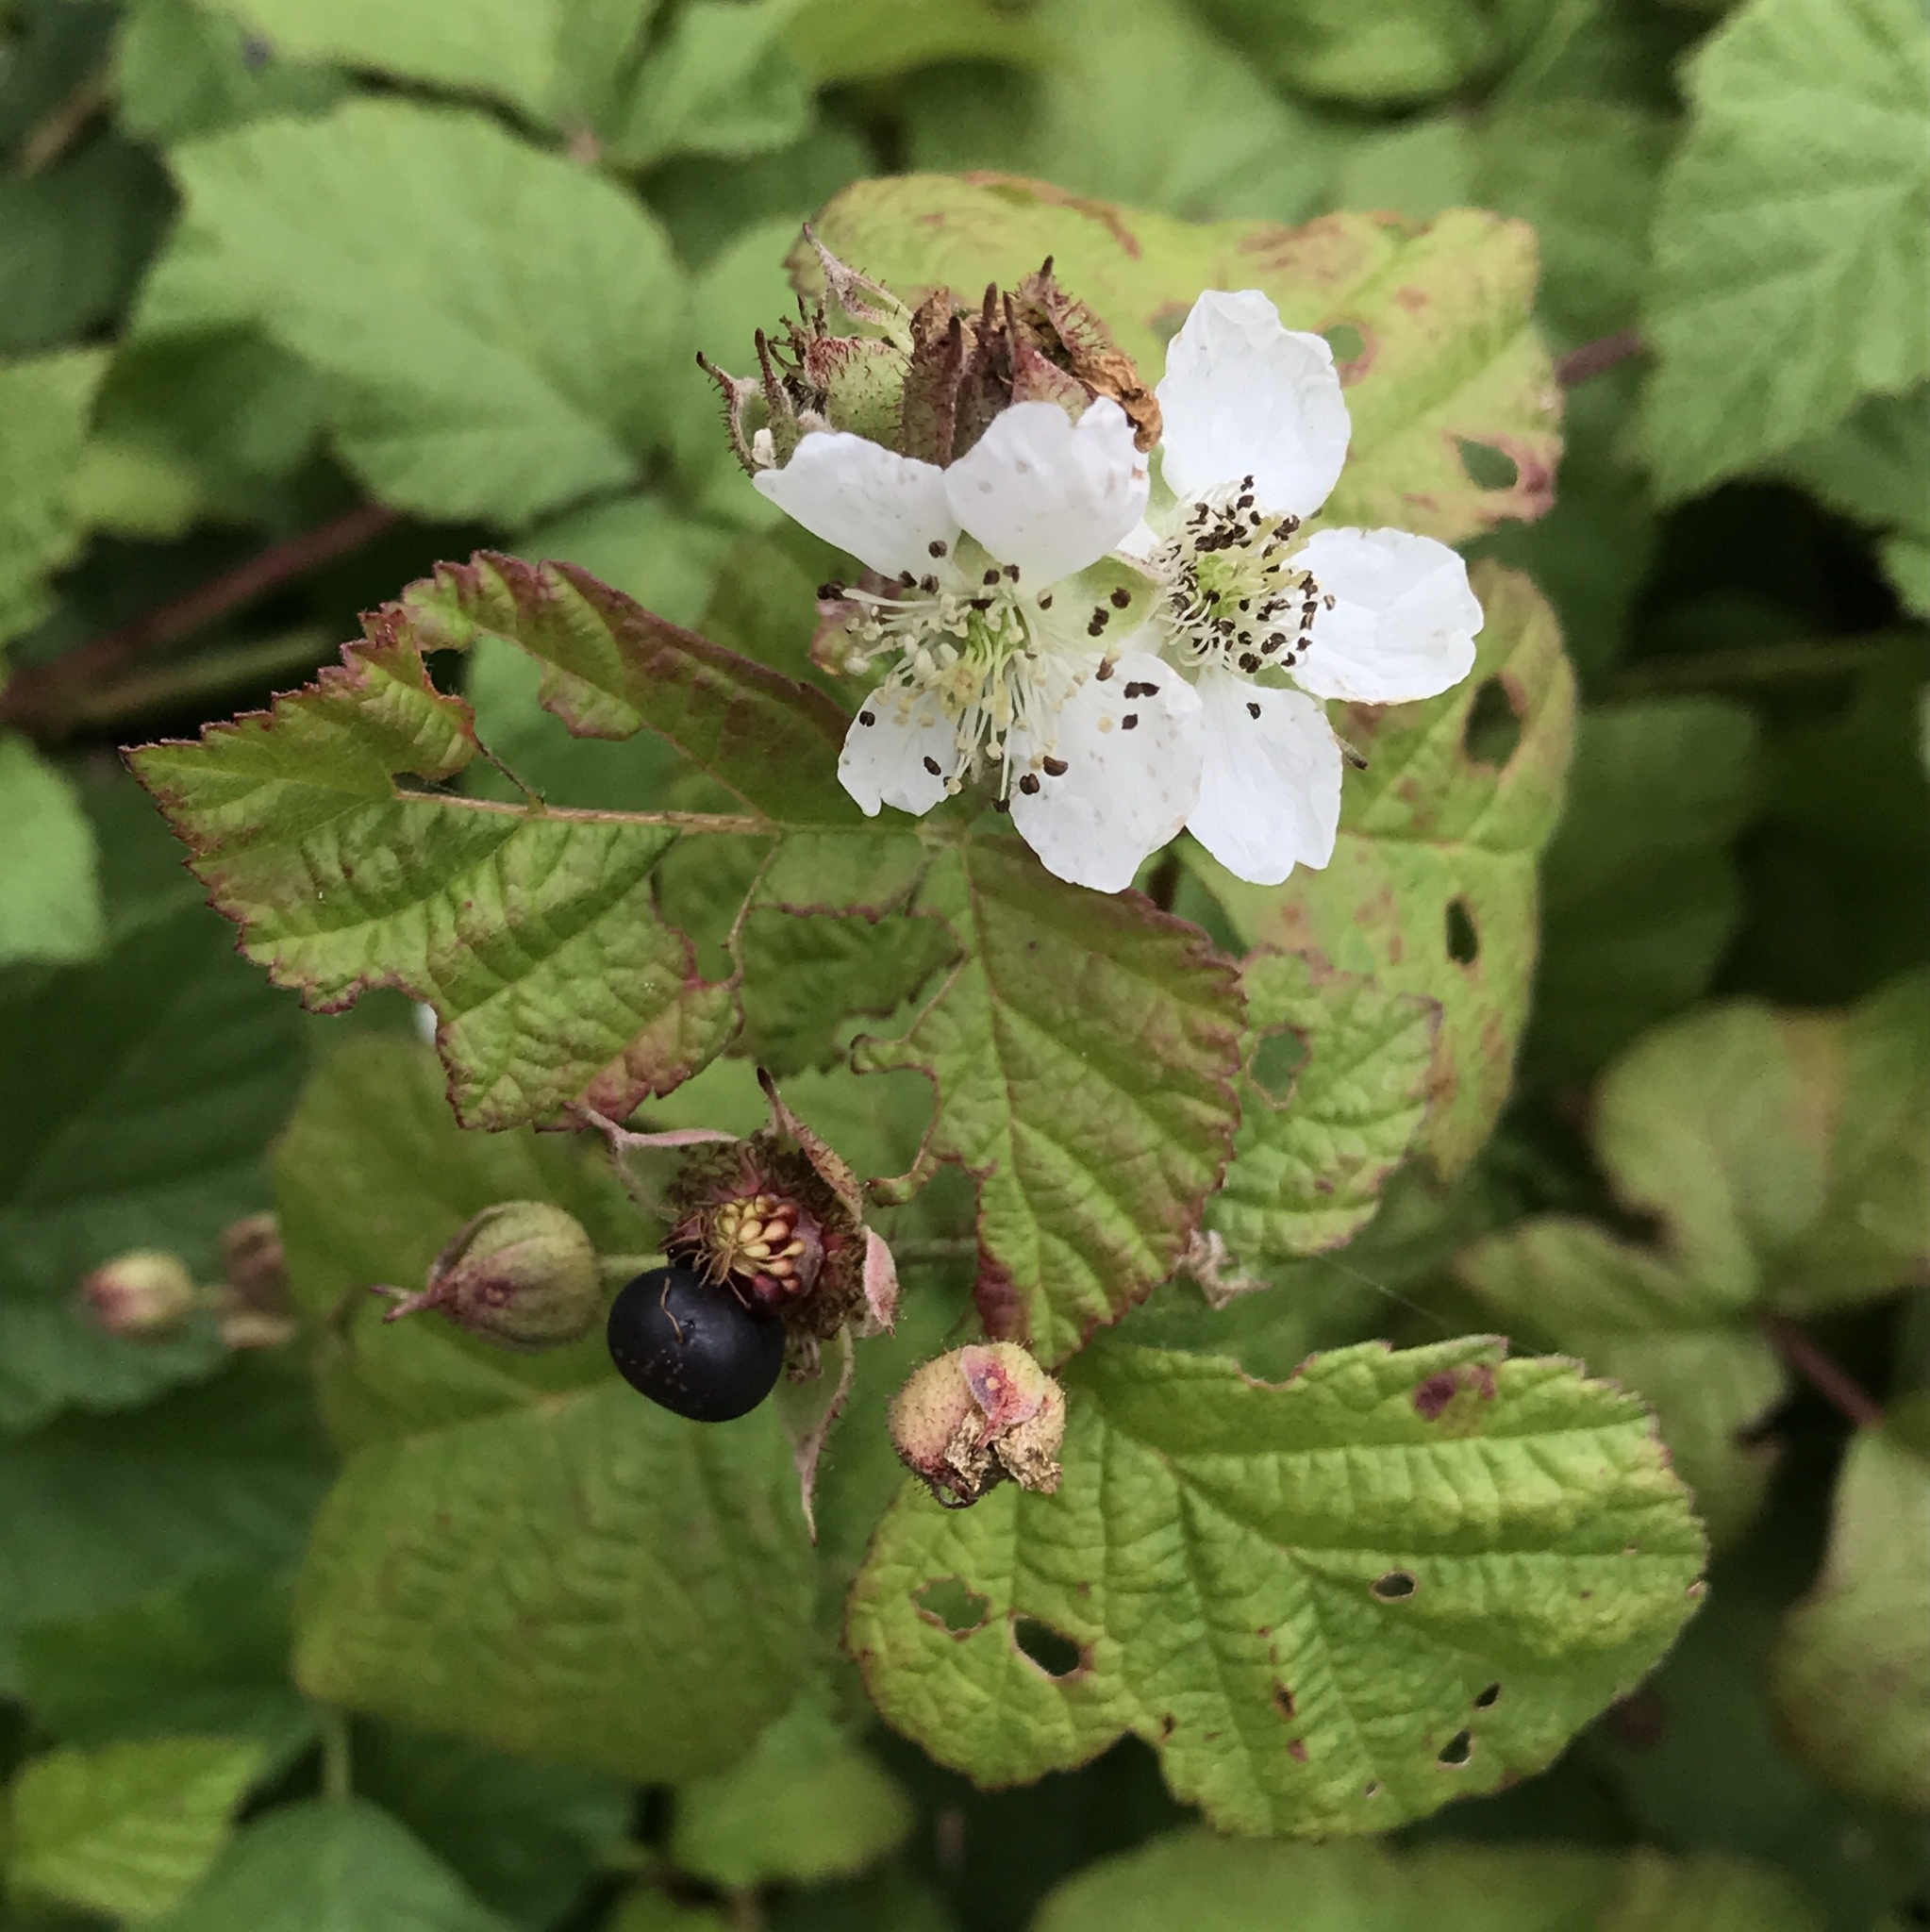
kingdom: Plantae
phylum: Tracheophyta
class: Magnoliopsida
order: Rosales
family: Rosaceae
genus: Rubus
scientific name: Rubus caesius
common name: Dewberry
